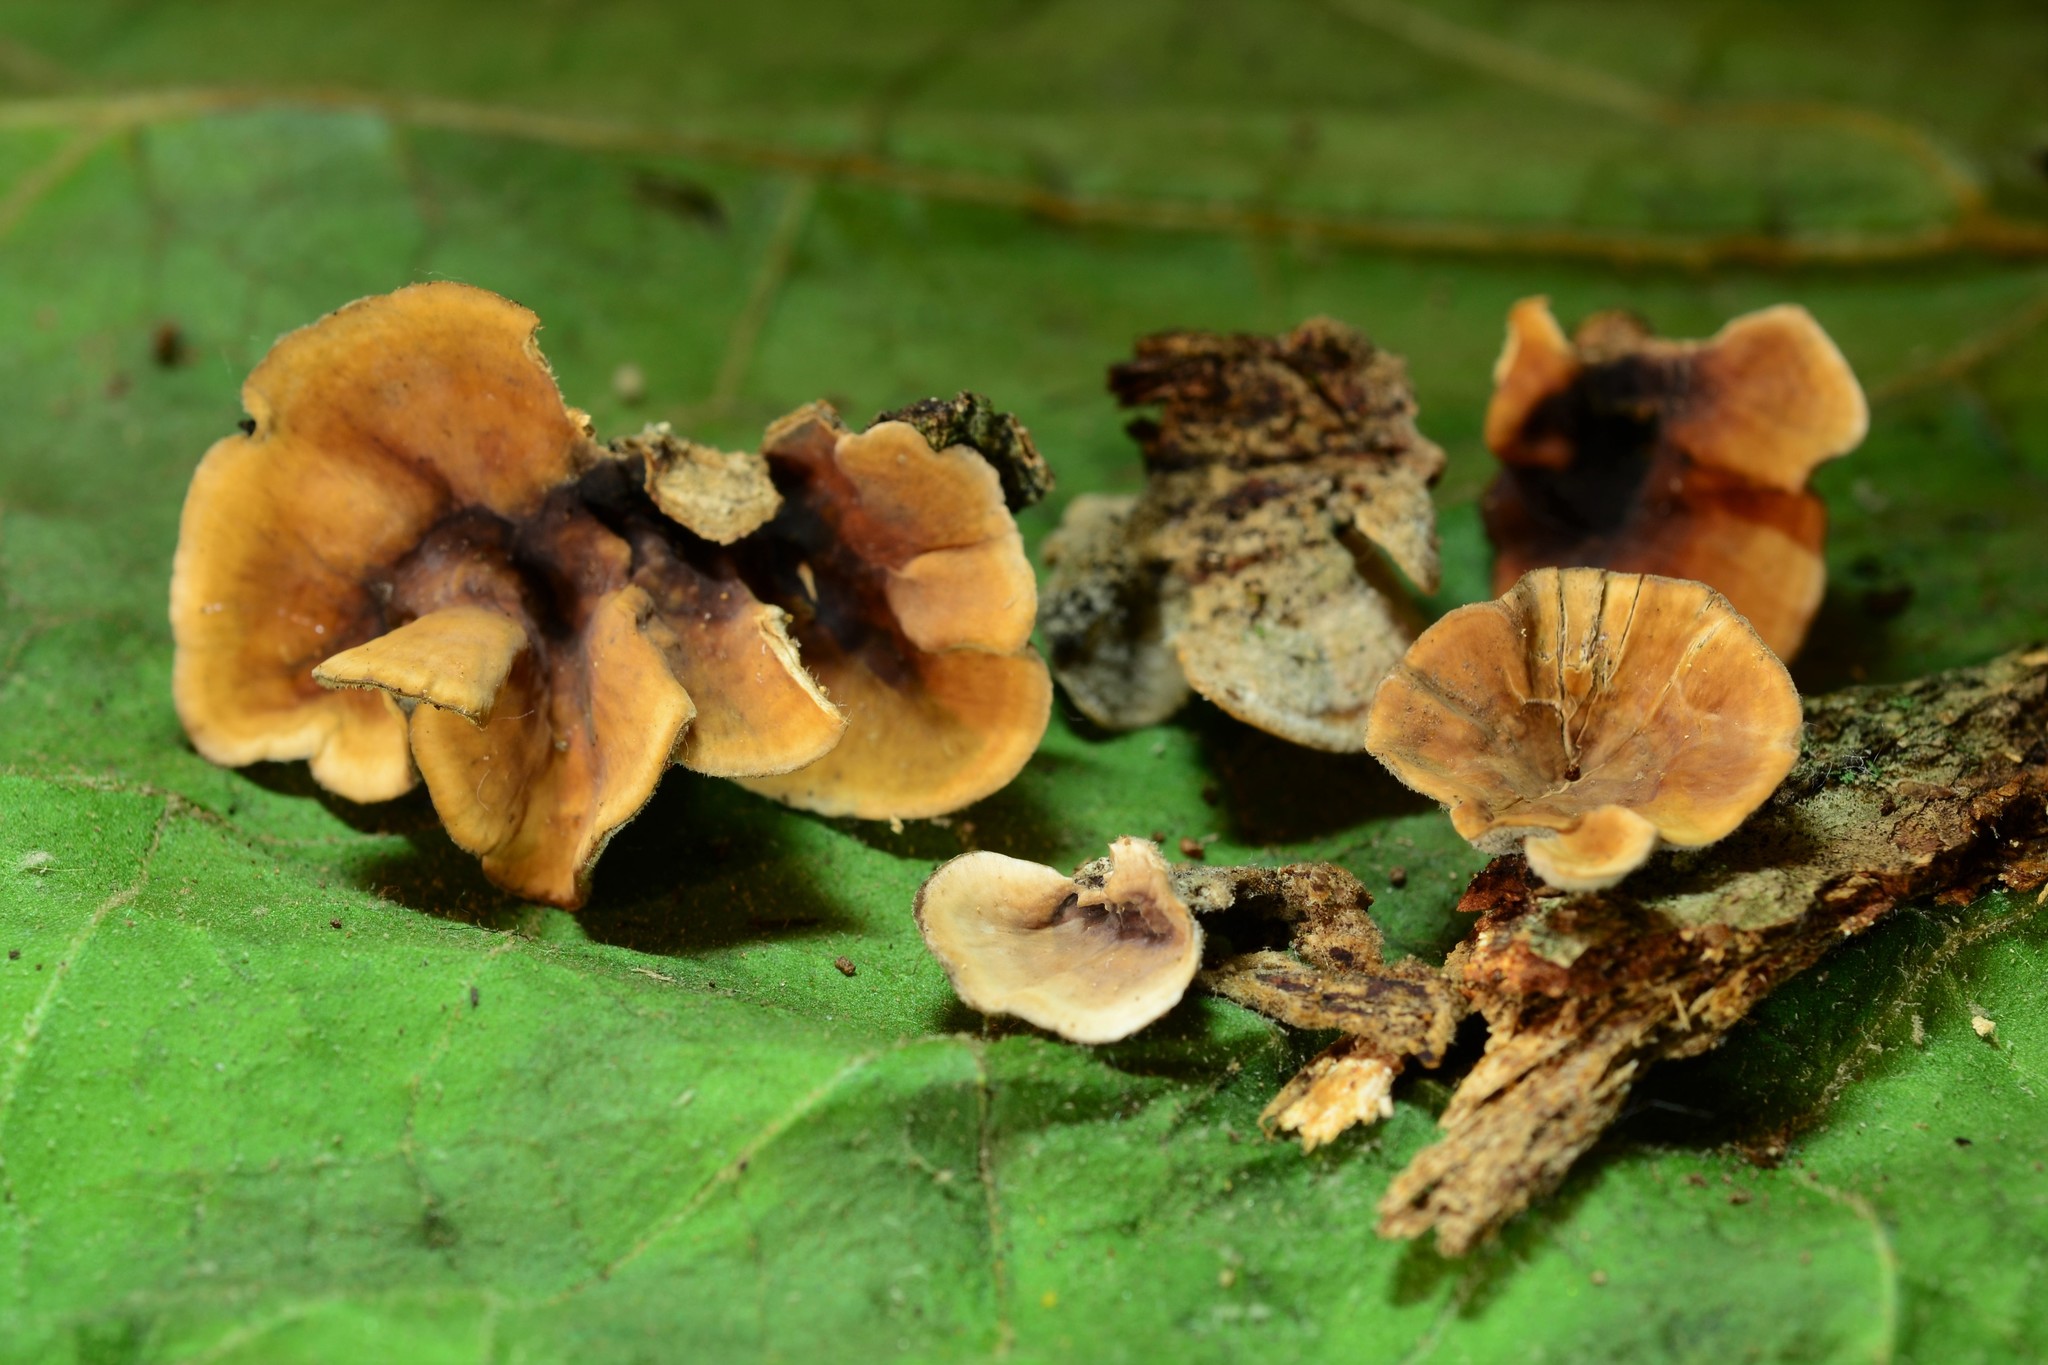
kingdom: Fungi
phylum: Basidiomycota
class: Agaricomycetes
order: Russulales
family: Stereaceae
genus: Stereum
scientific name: Stereum hirsutum
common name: Hairy curtain crust
